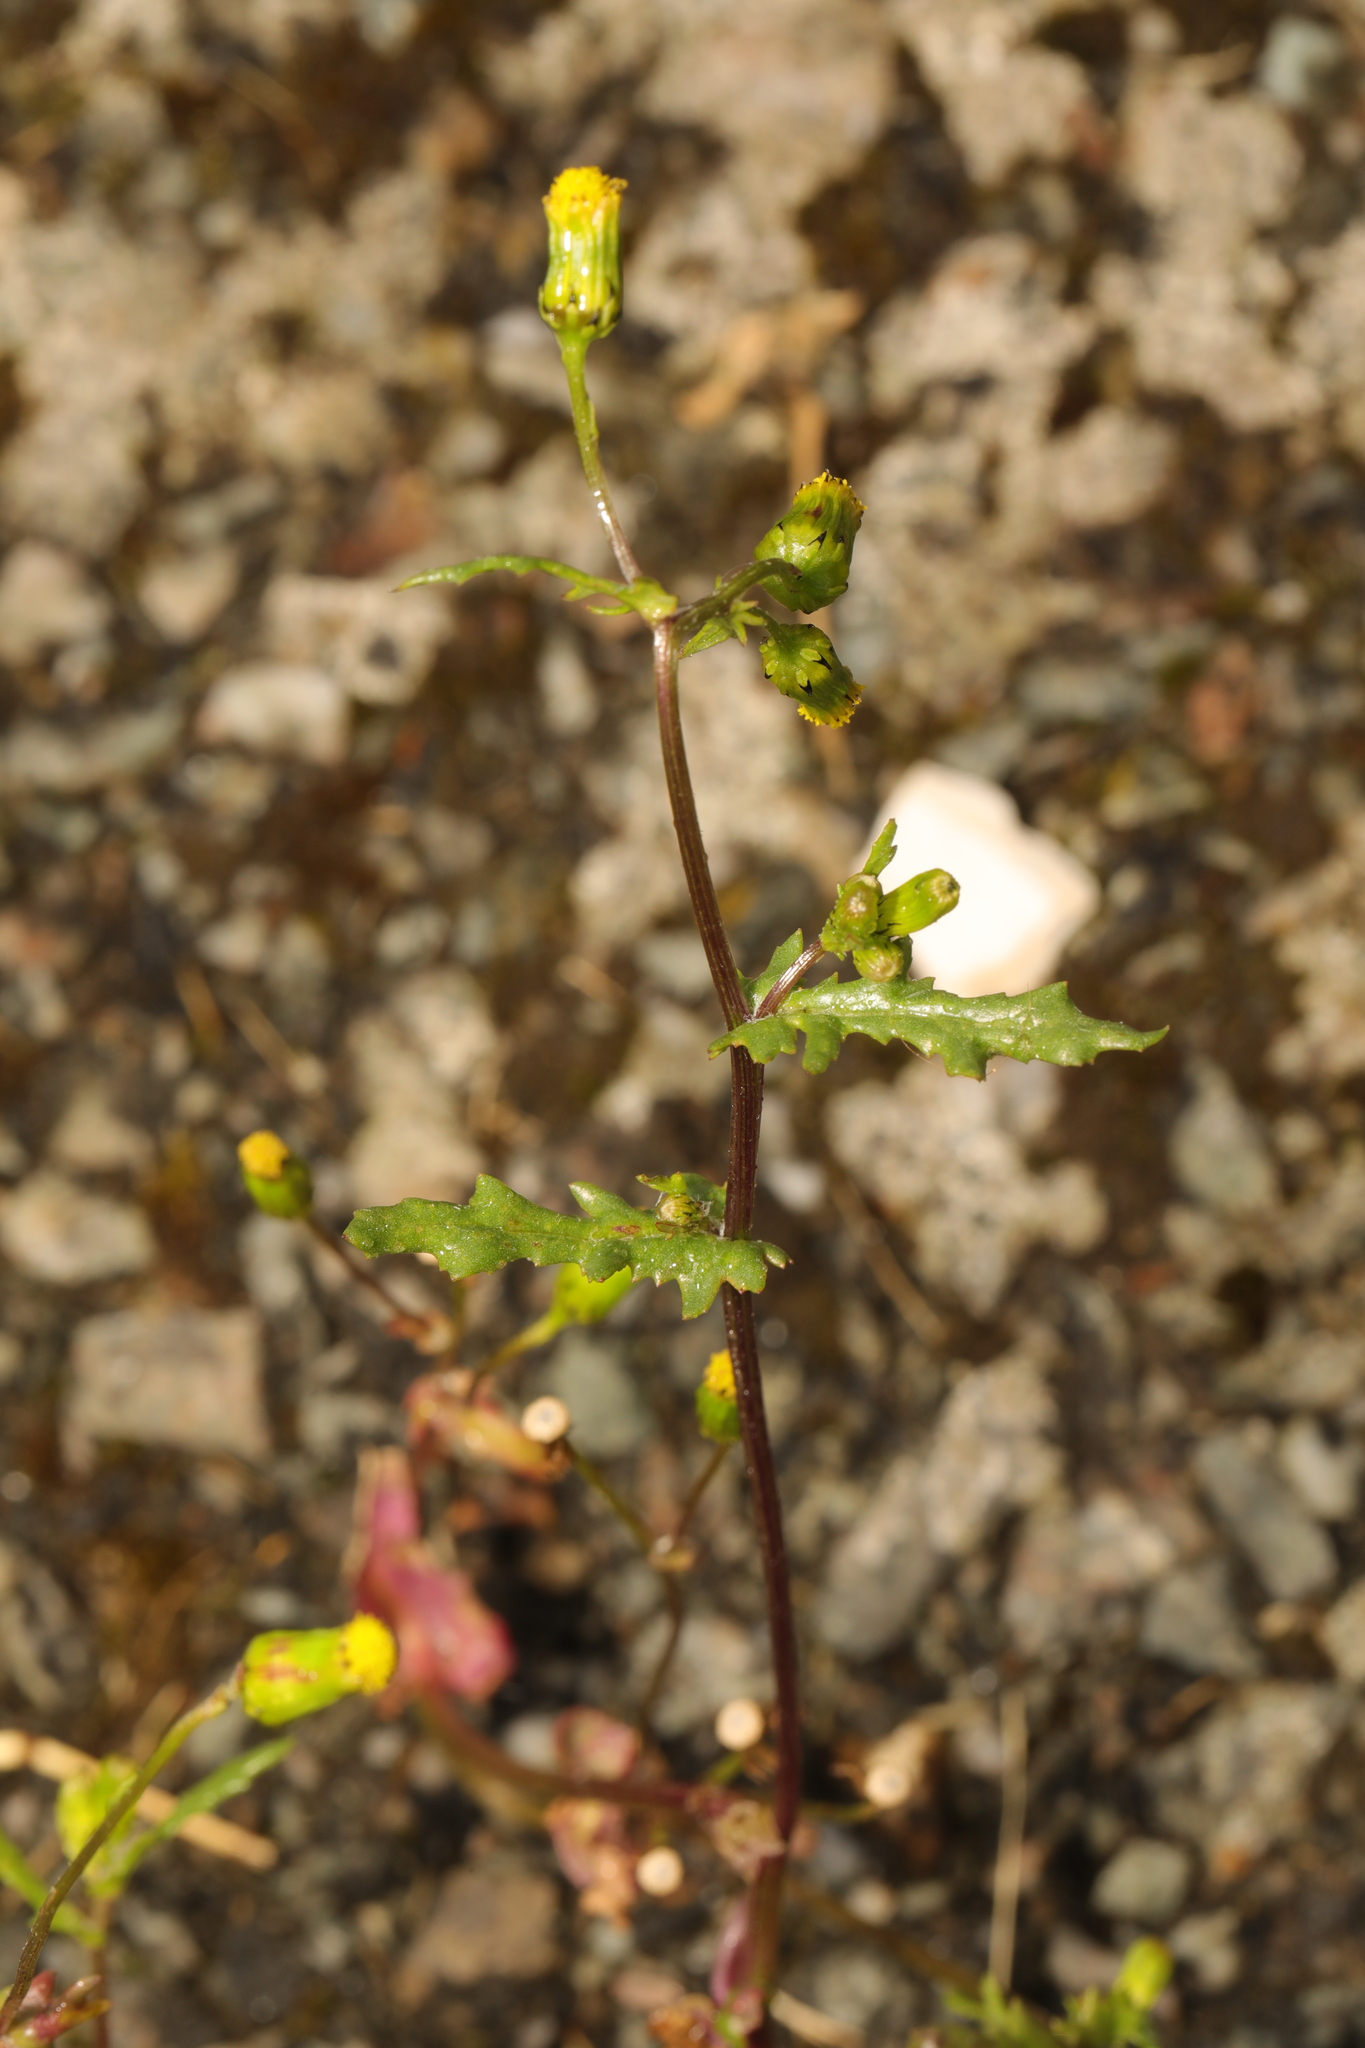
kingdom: Plantae
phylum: Tracheophyta
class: Magnoliopsida
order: Asterales
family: Asteraceae
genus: Senecio
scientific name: Senecio vulgaris
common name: Old-man-in-the-spring
